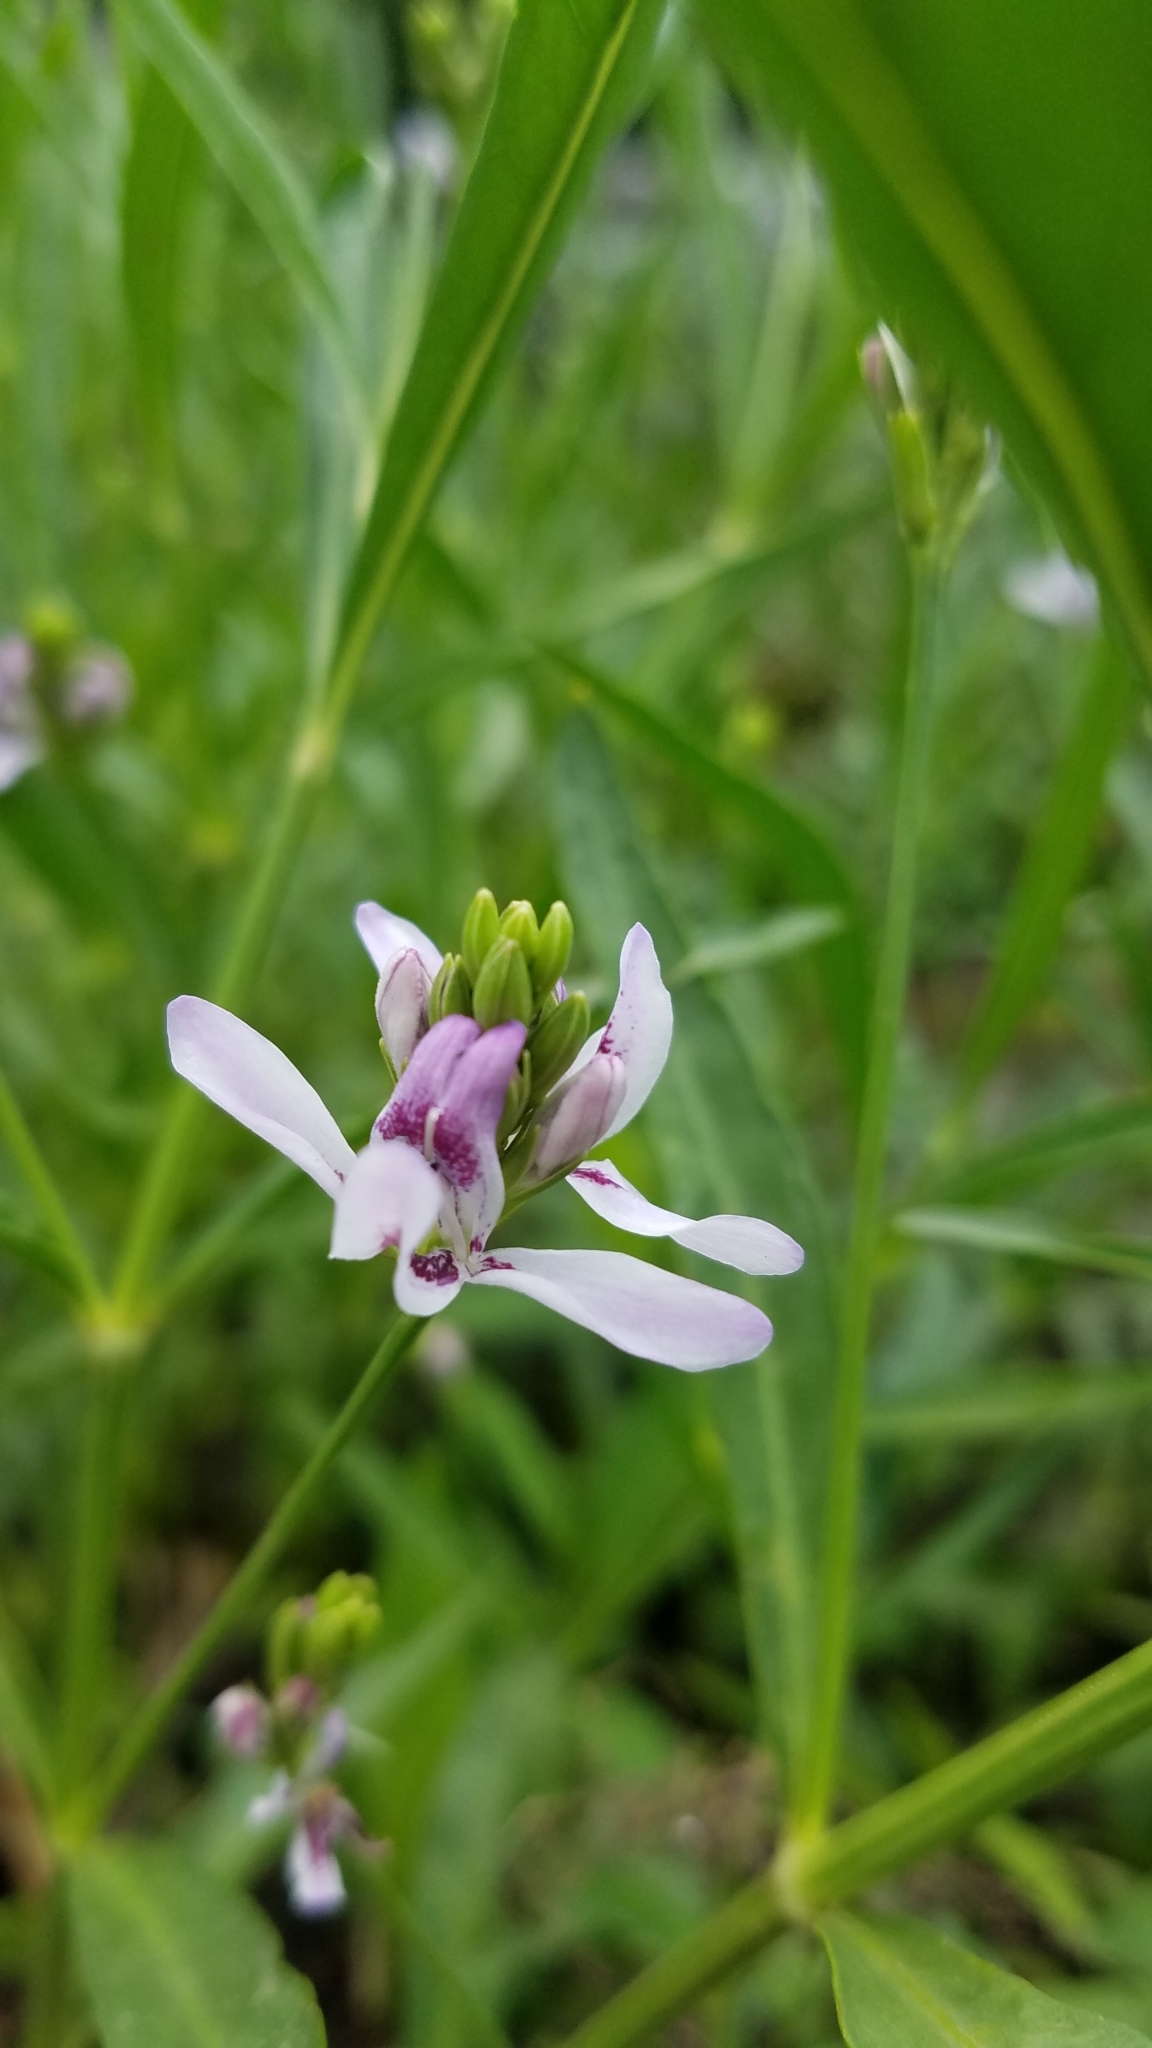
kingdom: Plantae
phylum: Tracheophyta
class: Magnoliopsida
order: Lamiales
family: Acanthaceae
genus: Dianthera
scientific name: Dianthera americana
